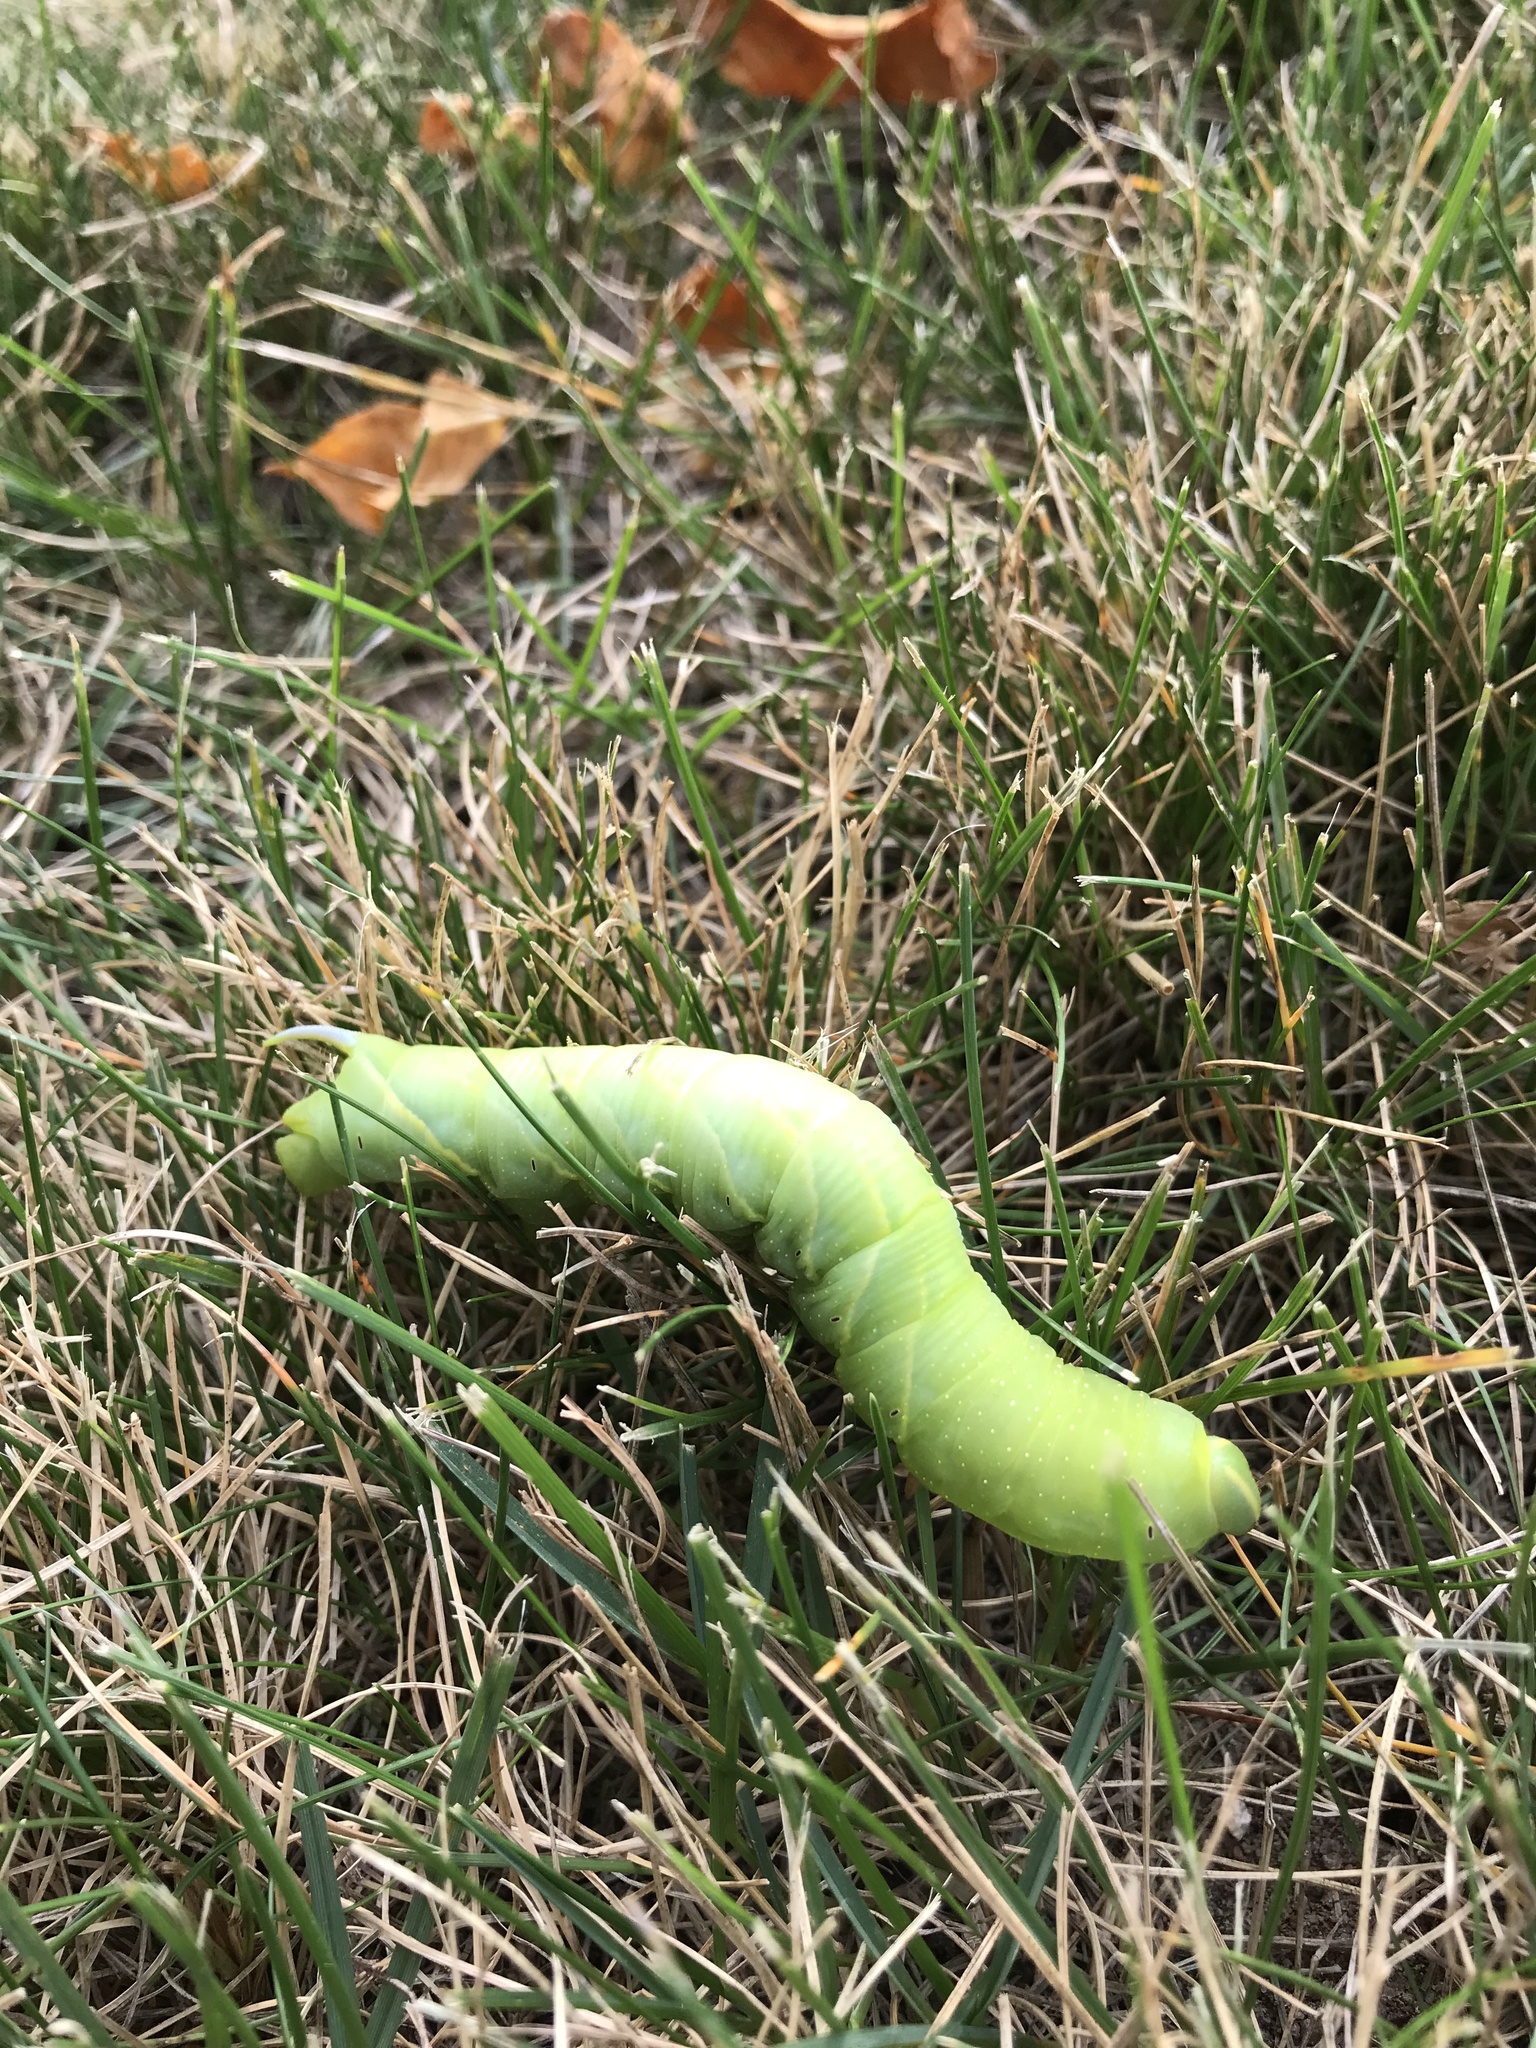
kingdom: Animalia
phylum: Arthropoda
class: Insecta
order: Lepidoptera
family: Sphingidae
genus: Sphinx
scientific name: Sphinx chersis
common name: Great ash sphinx
